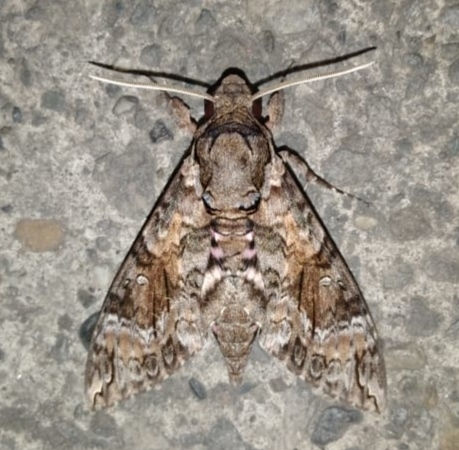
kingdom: Animalia
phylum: Arthropoda
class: Insecta
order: Lepidoptera
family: Sphingidae
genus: Agrius
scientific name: Agrius cingulata
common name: Pink-spotted hawkmoth
